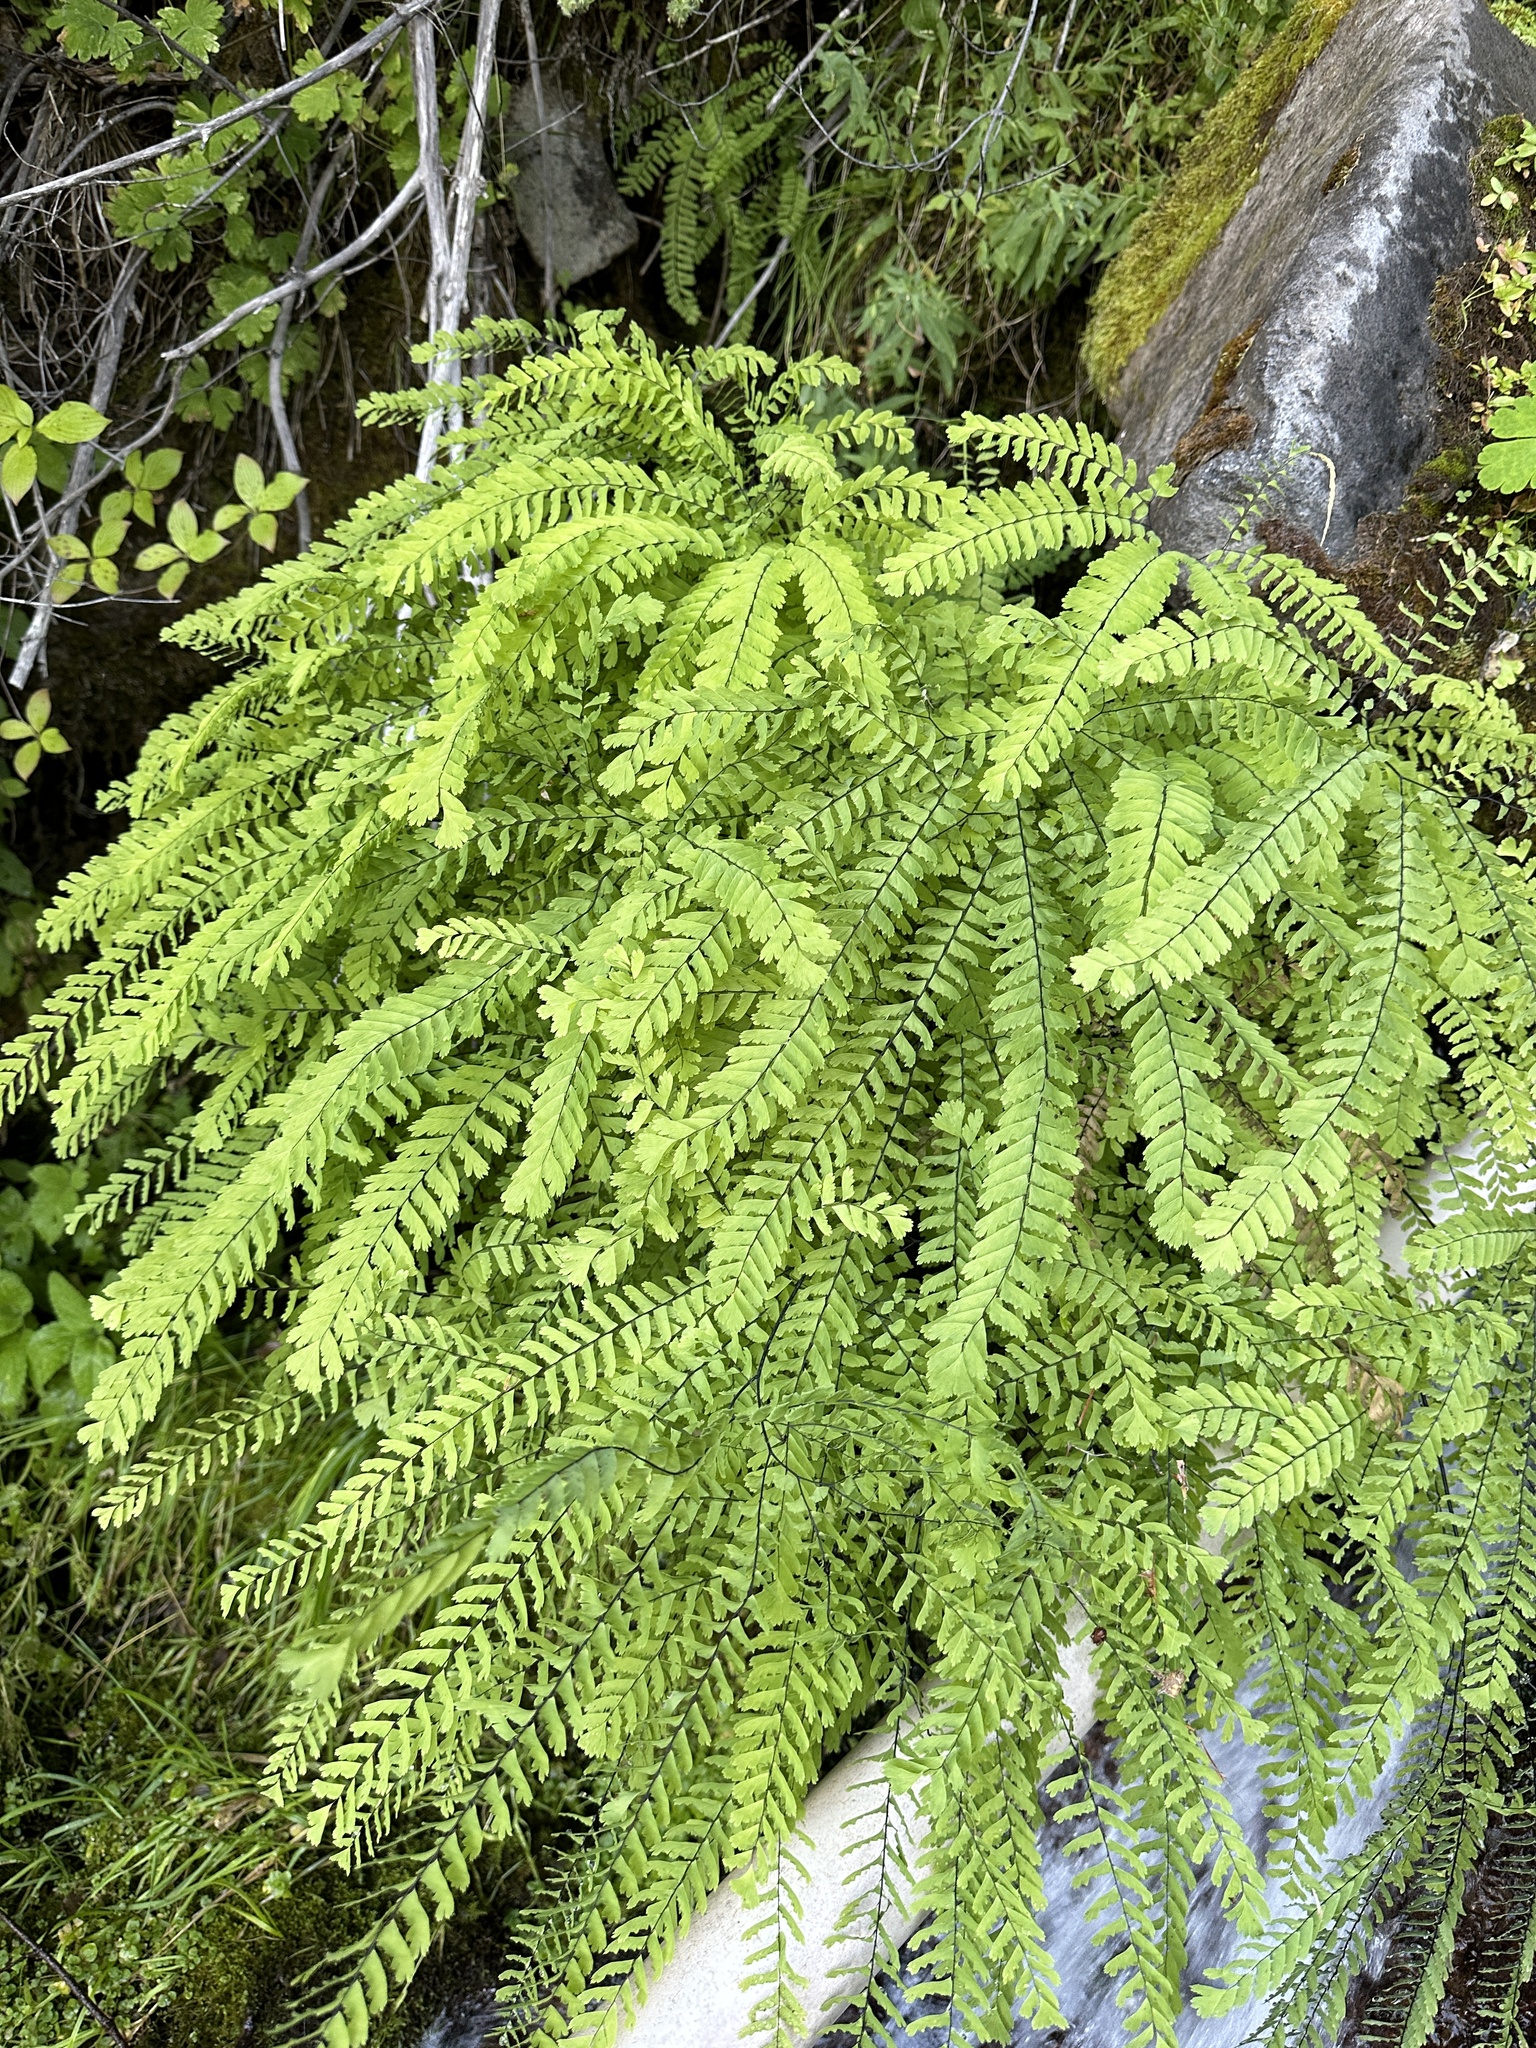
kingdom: Plantae
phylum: Tracheophyta
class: Polypodiopsida
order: Polypodiales
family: Pteridaceae
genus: Adiantum
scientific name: Adiantum aleuticum
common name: Aleutian maidenhair fern
